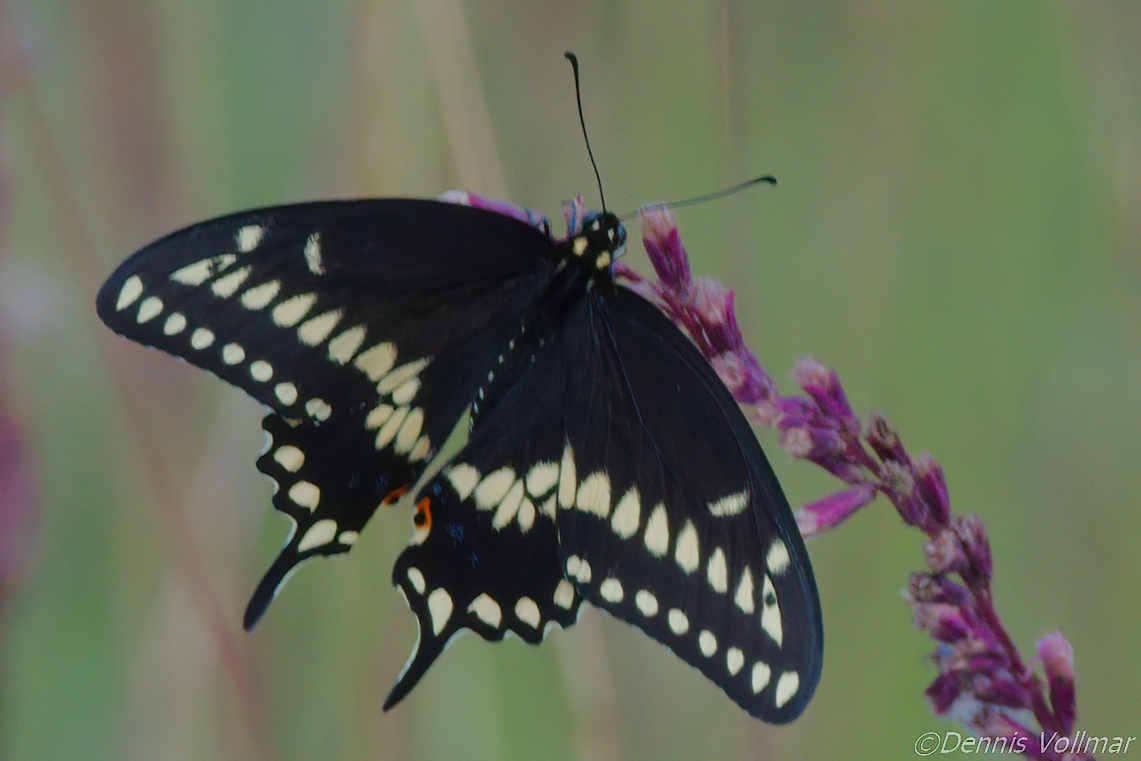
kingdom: Animalia
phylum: Arthropoda
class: Insecta
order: Lepidoptera
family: Papilionidae
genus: Papilio
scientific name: Papilio polyxenes
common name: Black swallowtail
